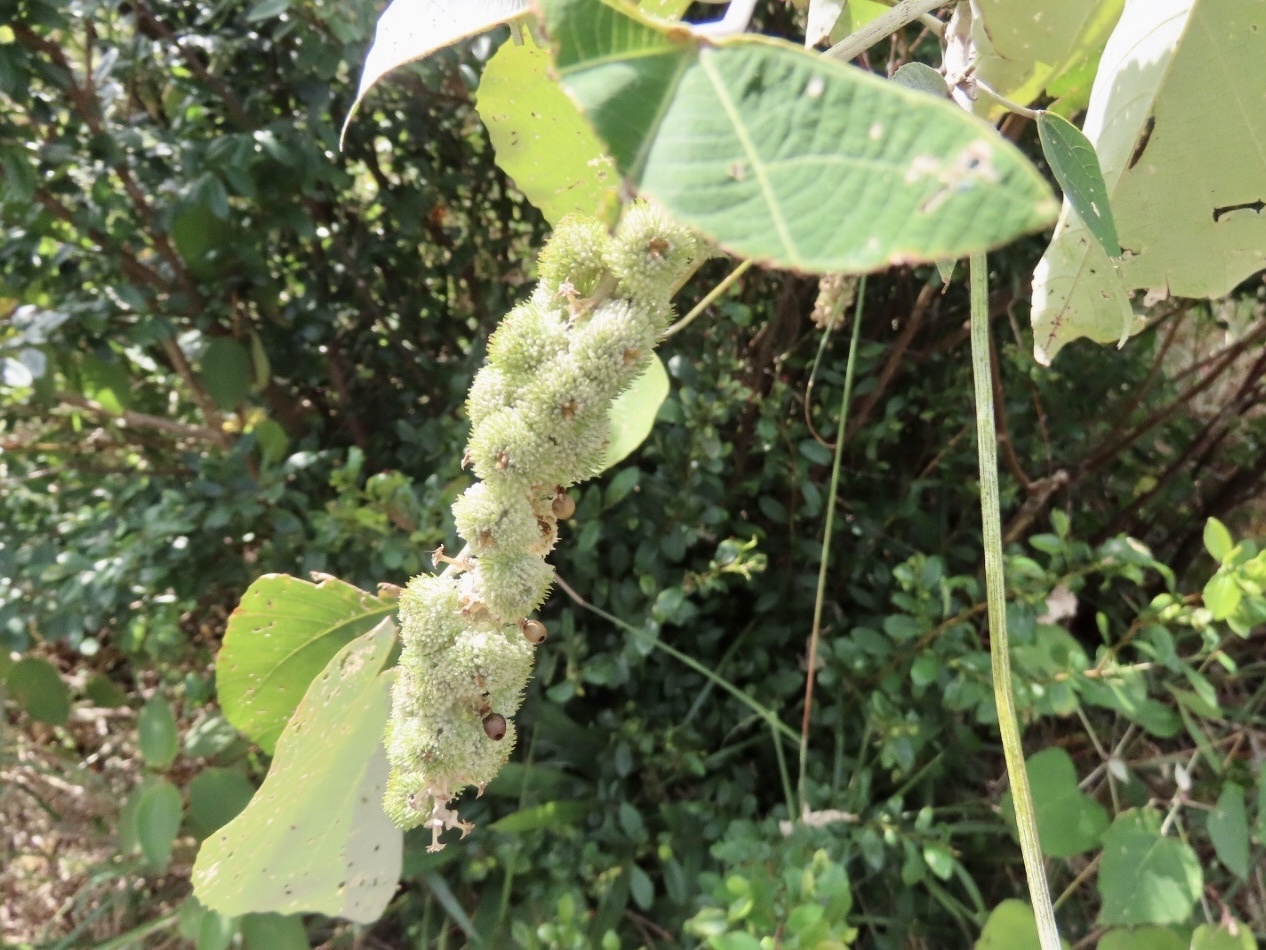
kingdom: Plantae
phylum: Tracheophyta
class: Magnoliopsida
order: Malpighiales
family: Euphorbiaceae
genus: Mallotus
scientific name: Mallotus apelta
